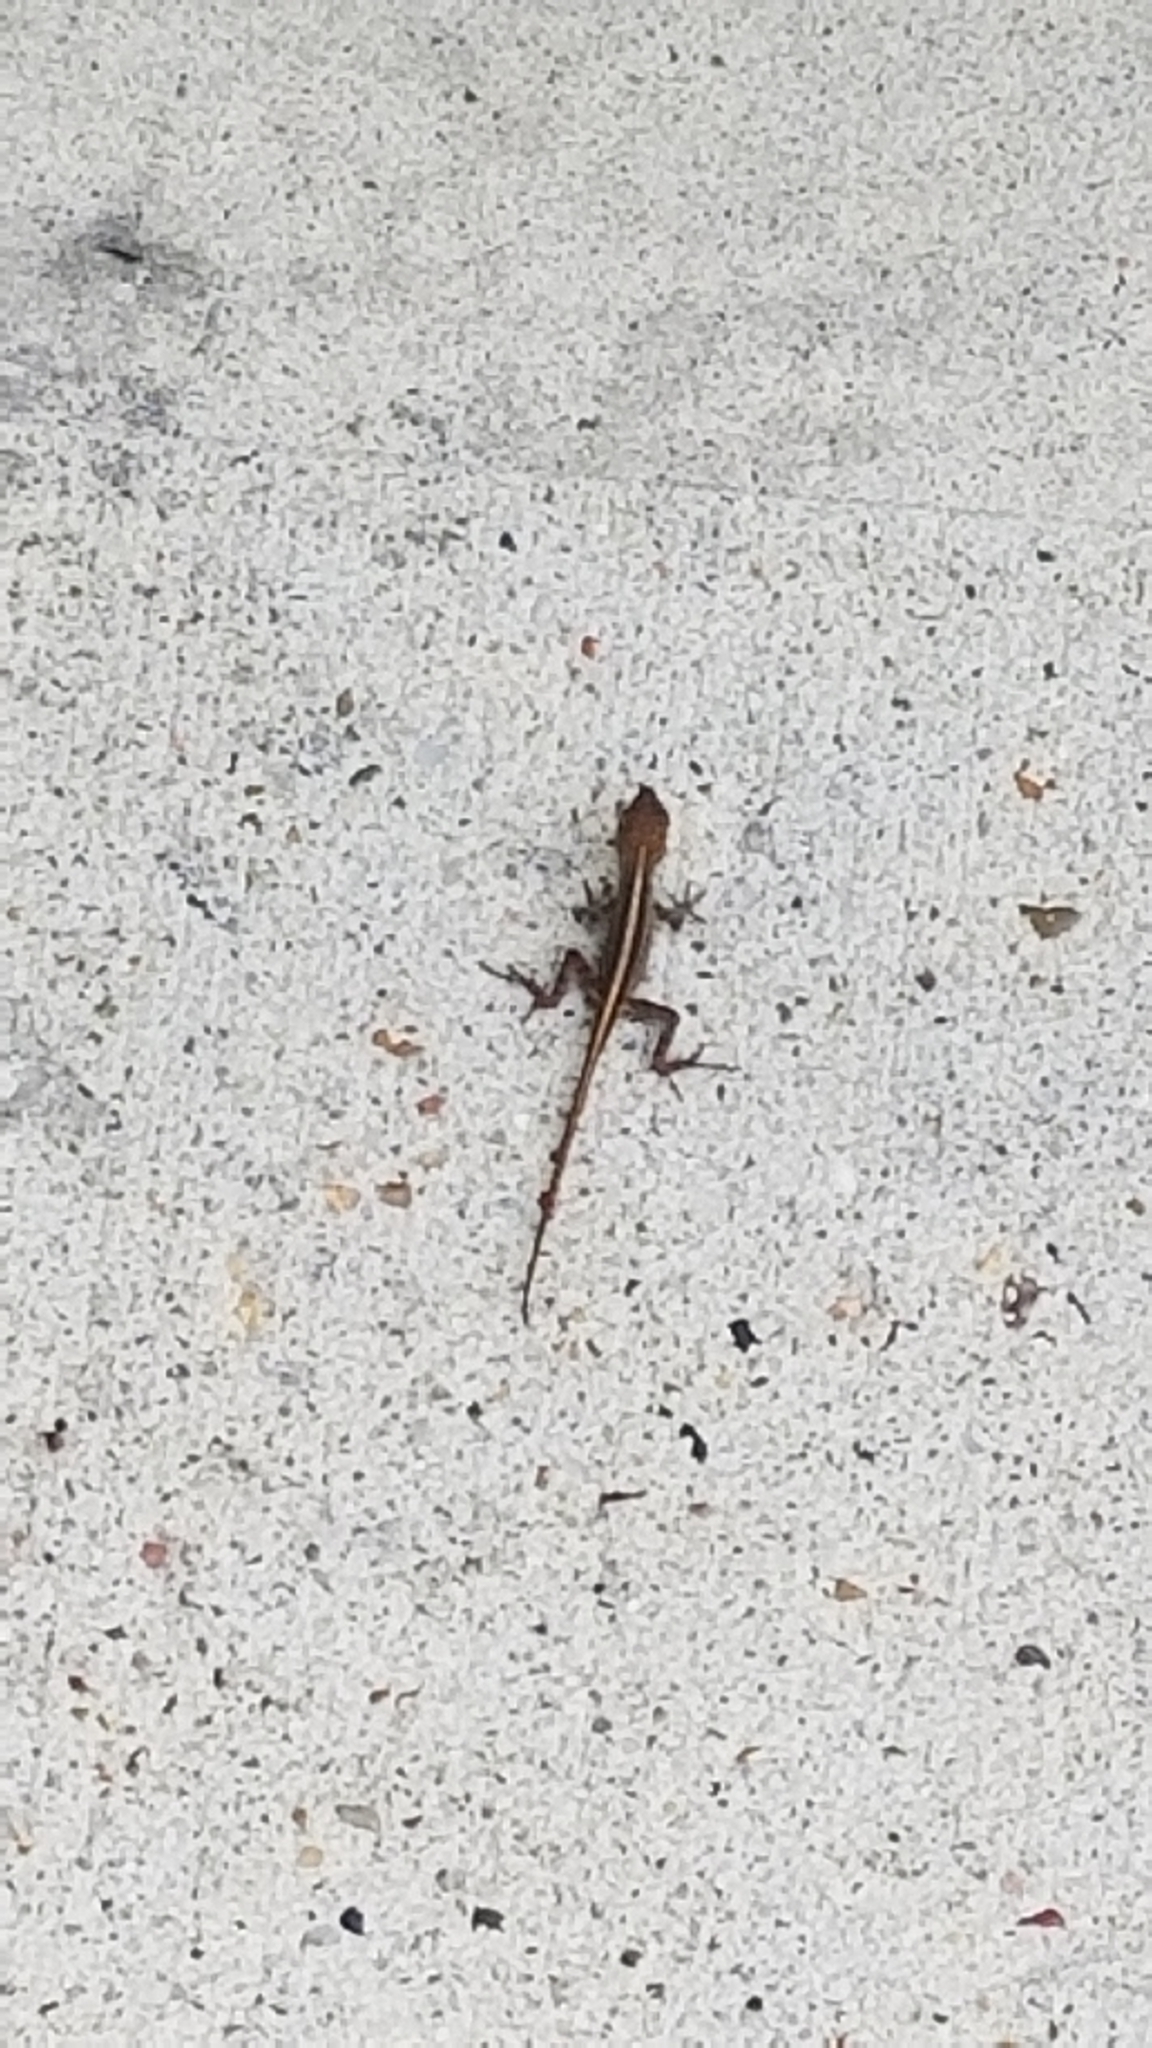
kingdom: Animalia
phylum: Chordata
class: Squamata
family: Dactyloidae
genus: Anolis
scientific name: Anolis sagrei
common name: Brown anole
